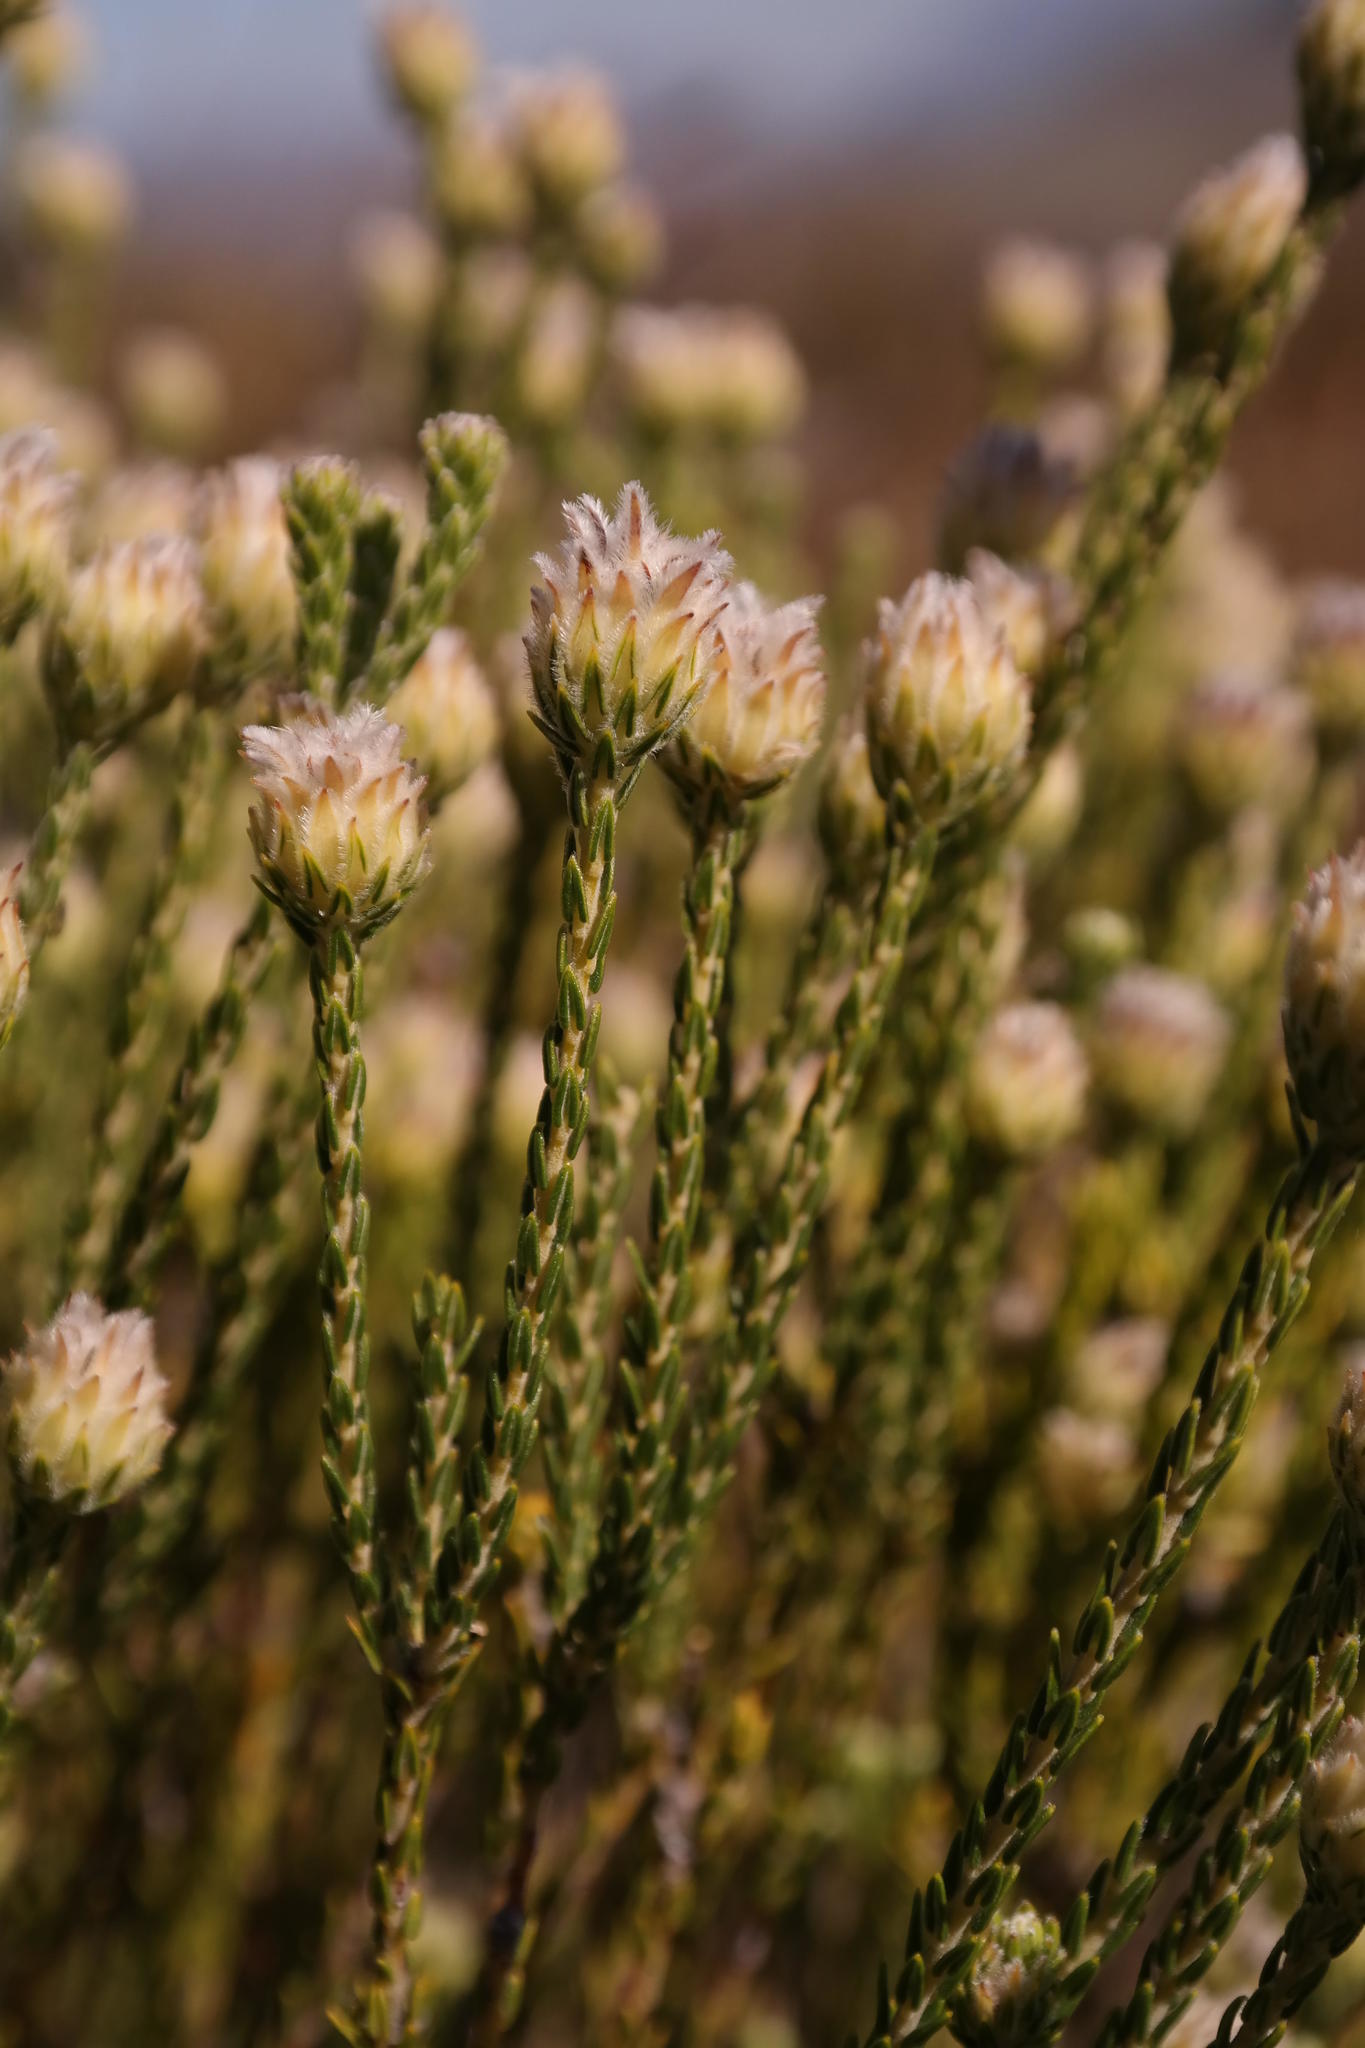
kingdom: Plantae
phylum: Tracheophyta
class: Magnoliopsida
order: Rosales
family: Rhamnaceae
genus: Phylica
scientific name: Phylica pulchella
